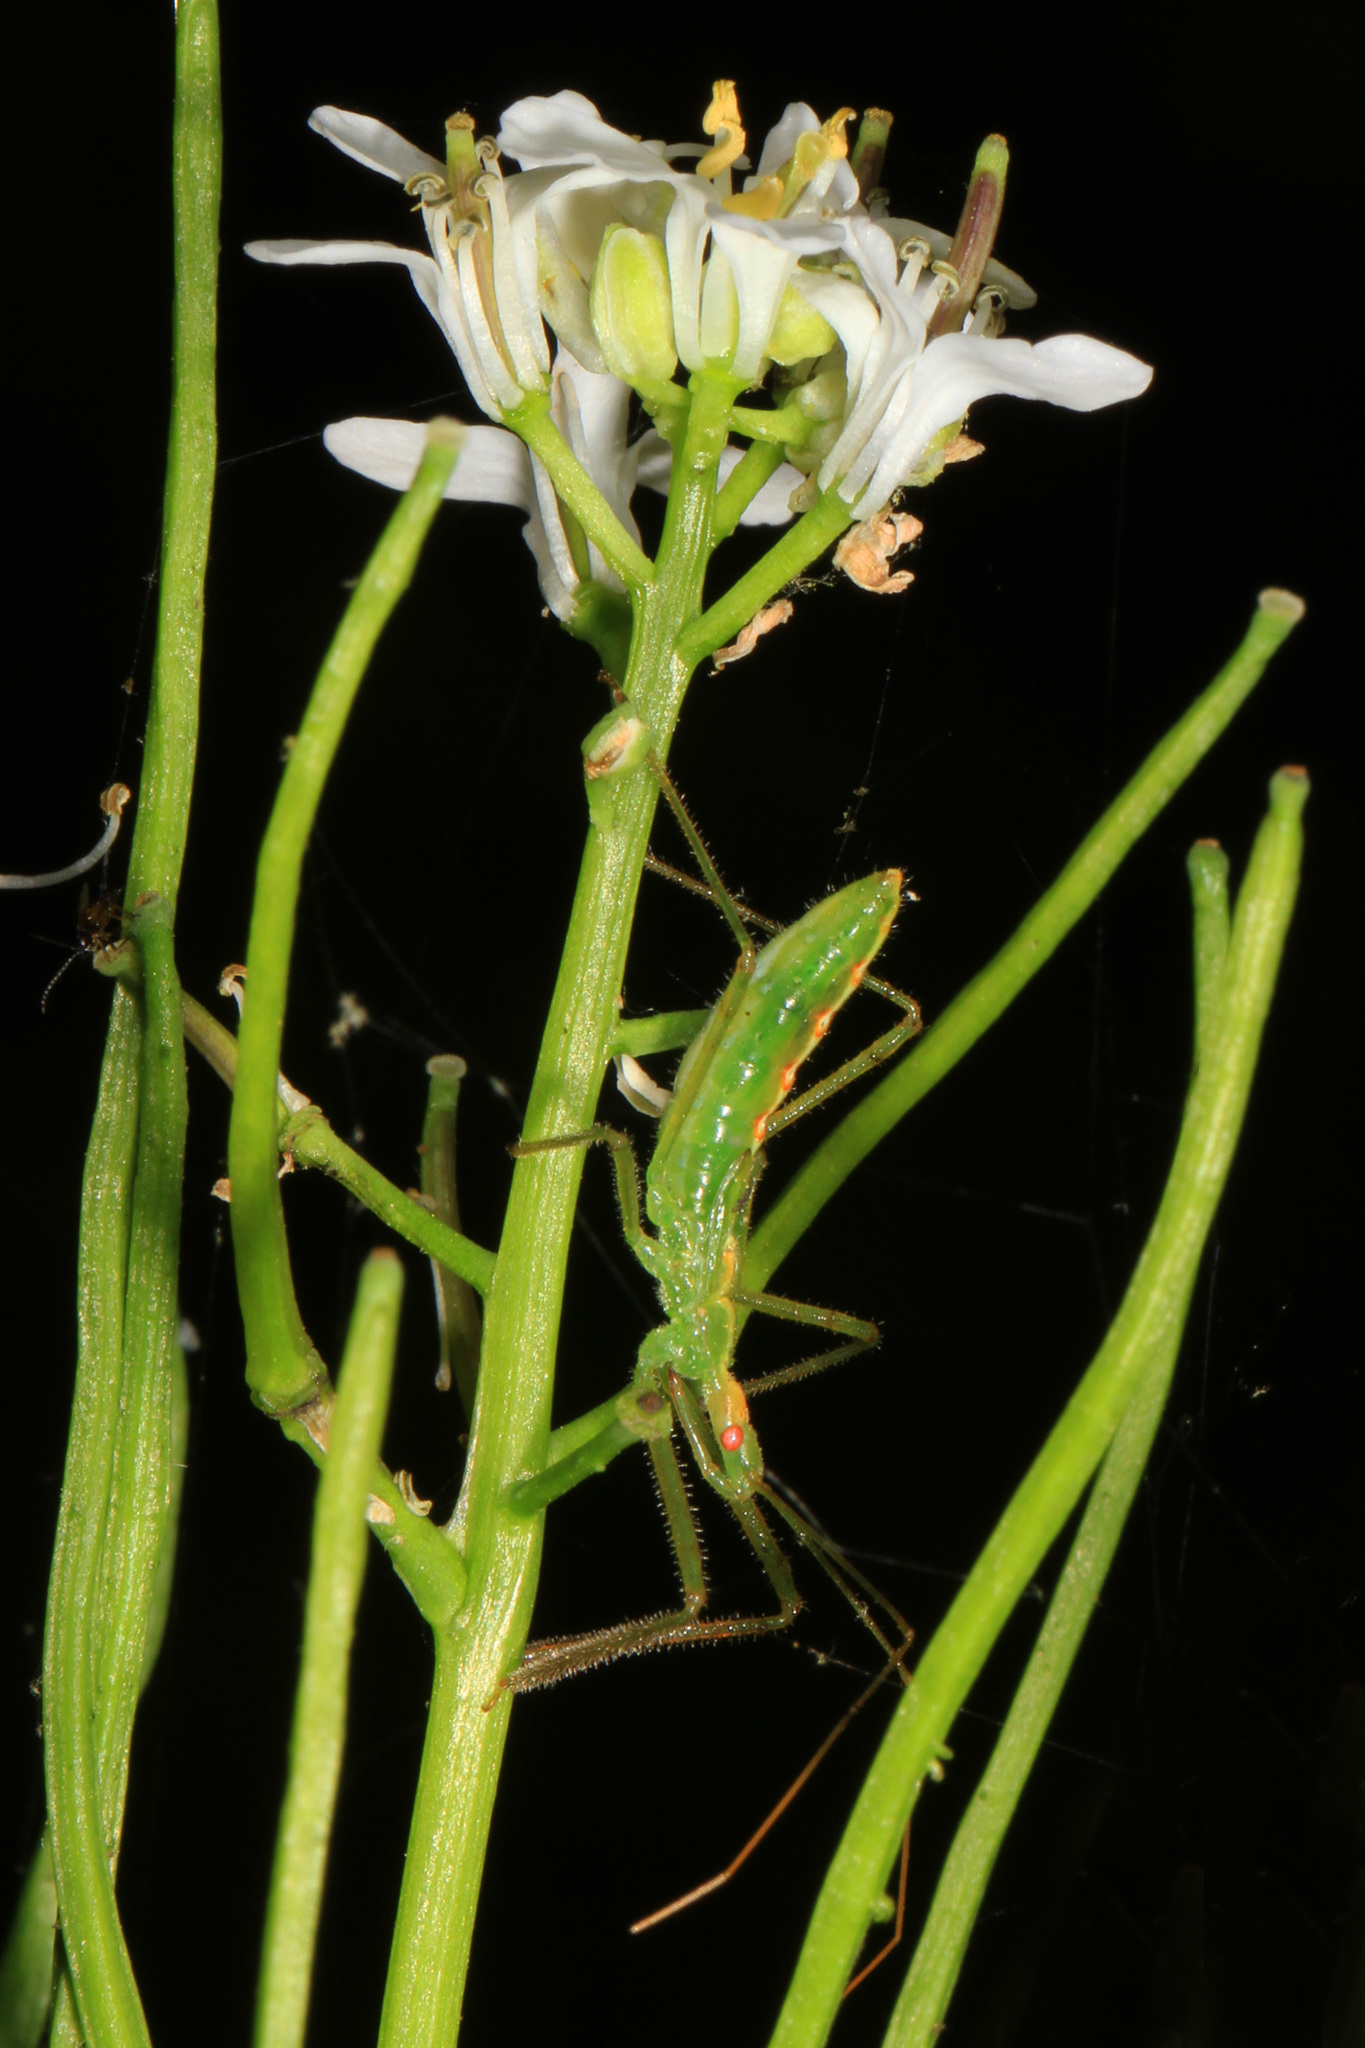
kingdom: Animalia
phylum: Arthropoda
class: Insecta
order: Hemiptera
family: Reduviidae
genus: Zelus
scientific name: Zelus luridus
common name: Pale green assassin bug
